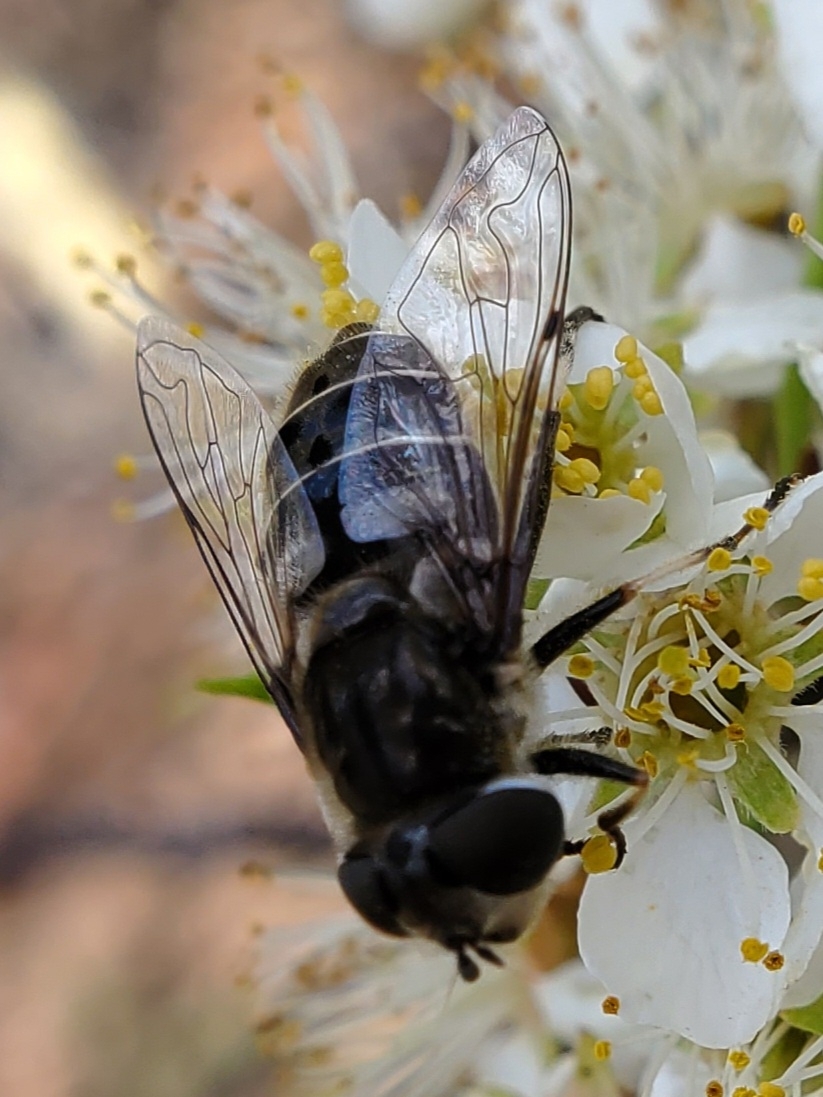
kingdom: Animalia
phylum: Arthropoda
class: Insecta
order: Diptera
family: Syrphidae
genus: Eristalis
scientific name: Eristalis dimidiata
